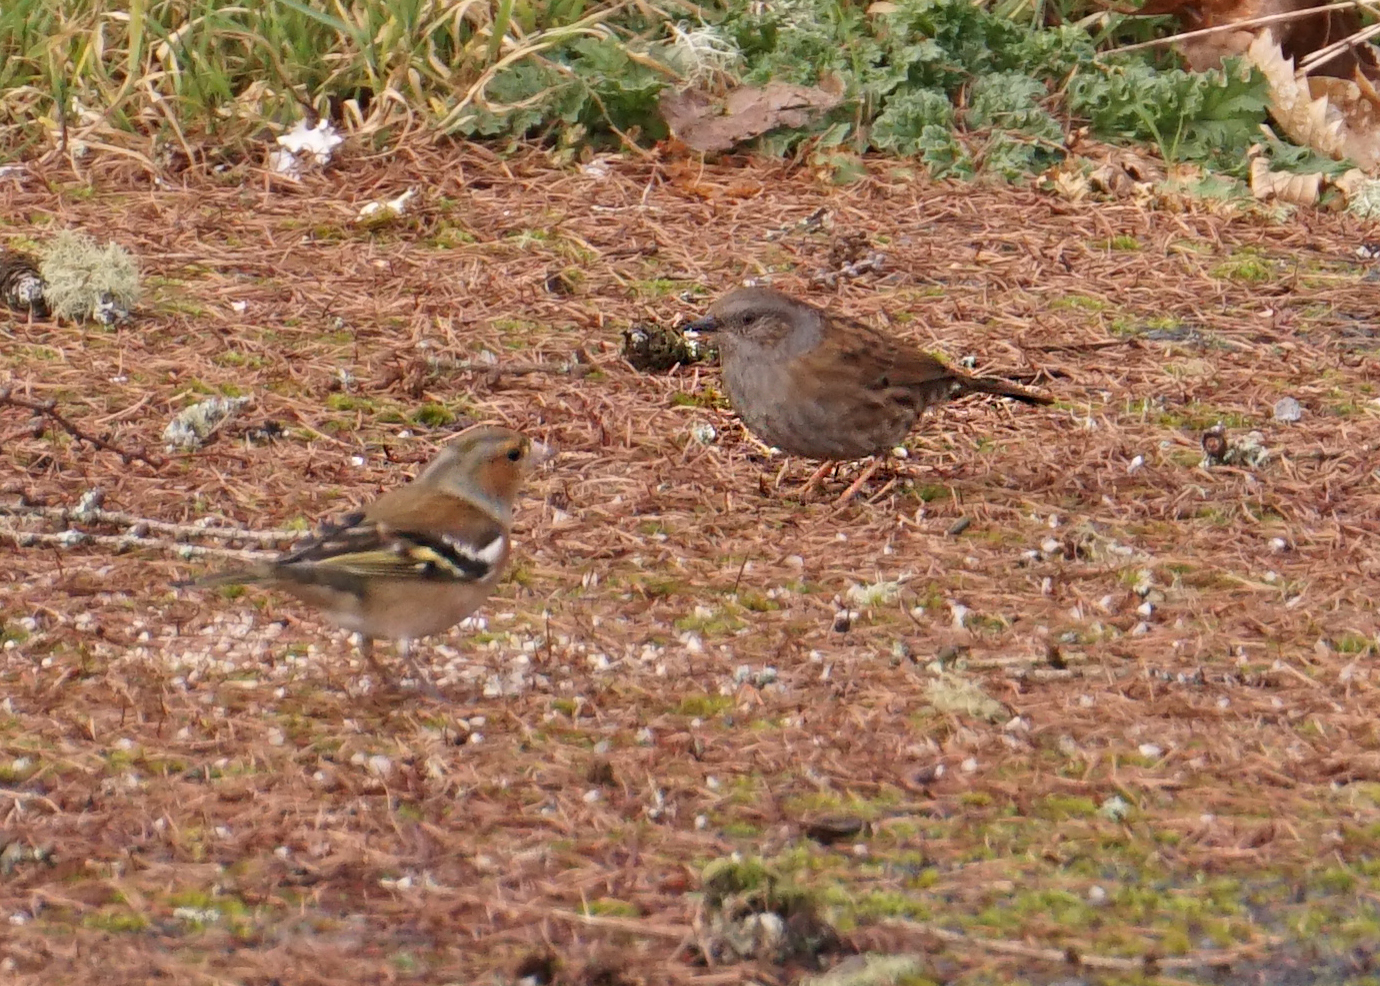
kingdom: Animalia
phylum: Chordata
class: Aves
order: Passeriformes
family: Prunellidae
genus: Prunella
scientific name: Prunella modularis
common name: Dunnock
